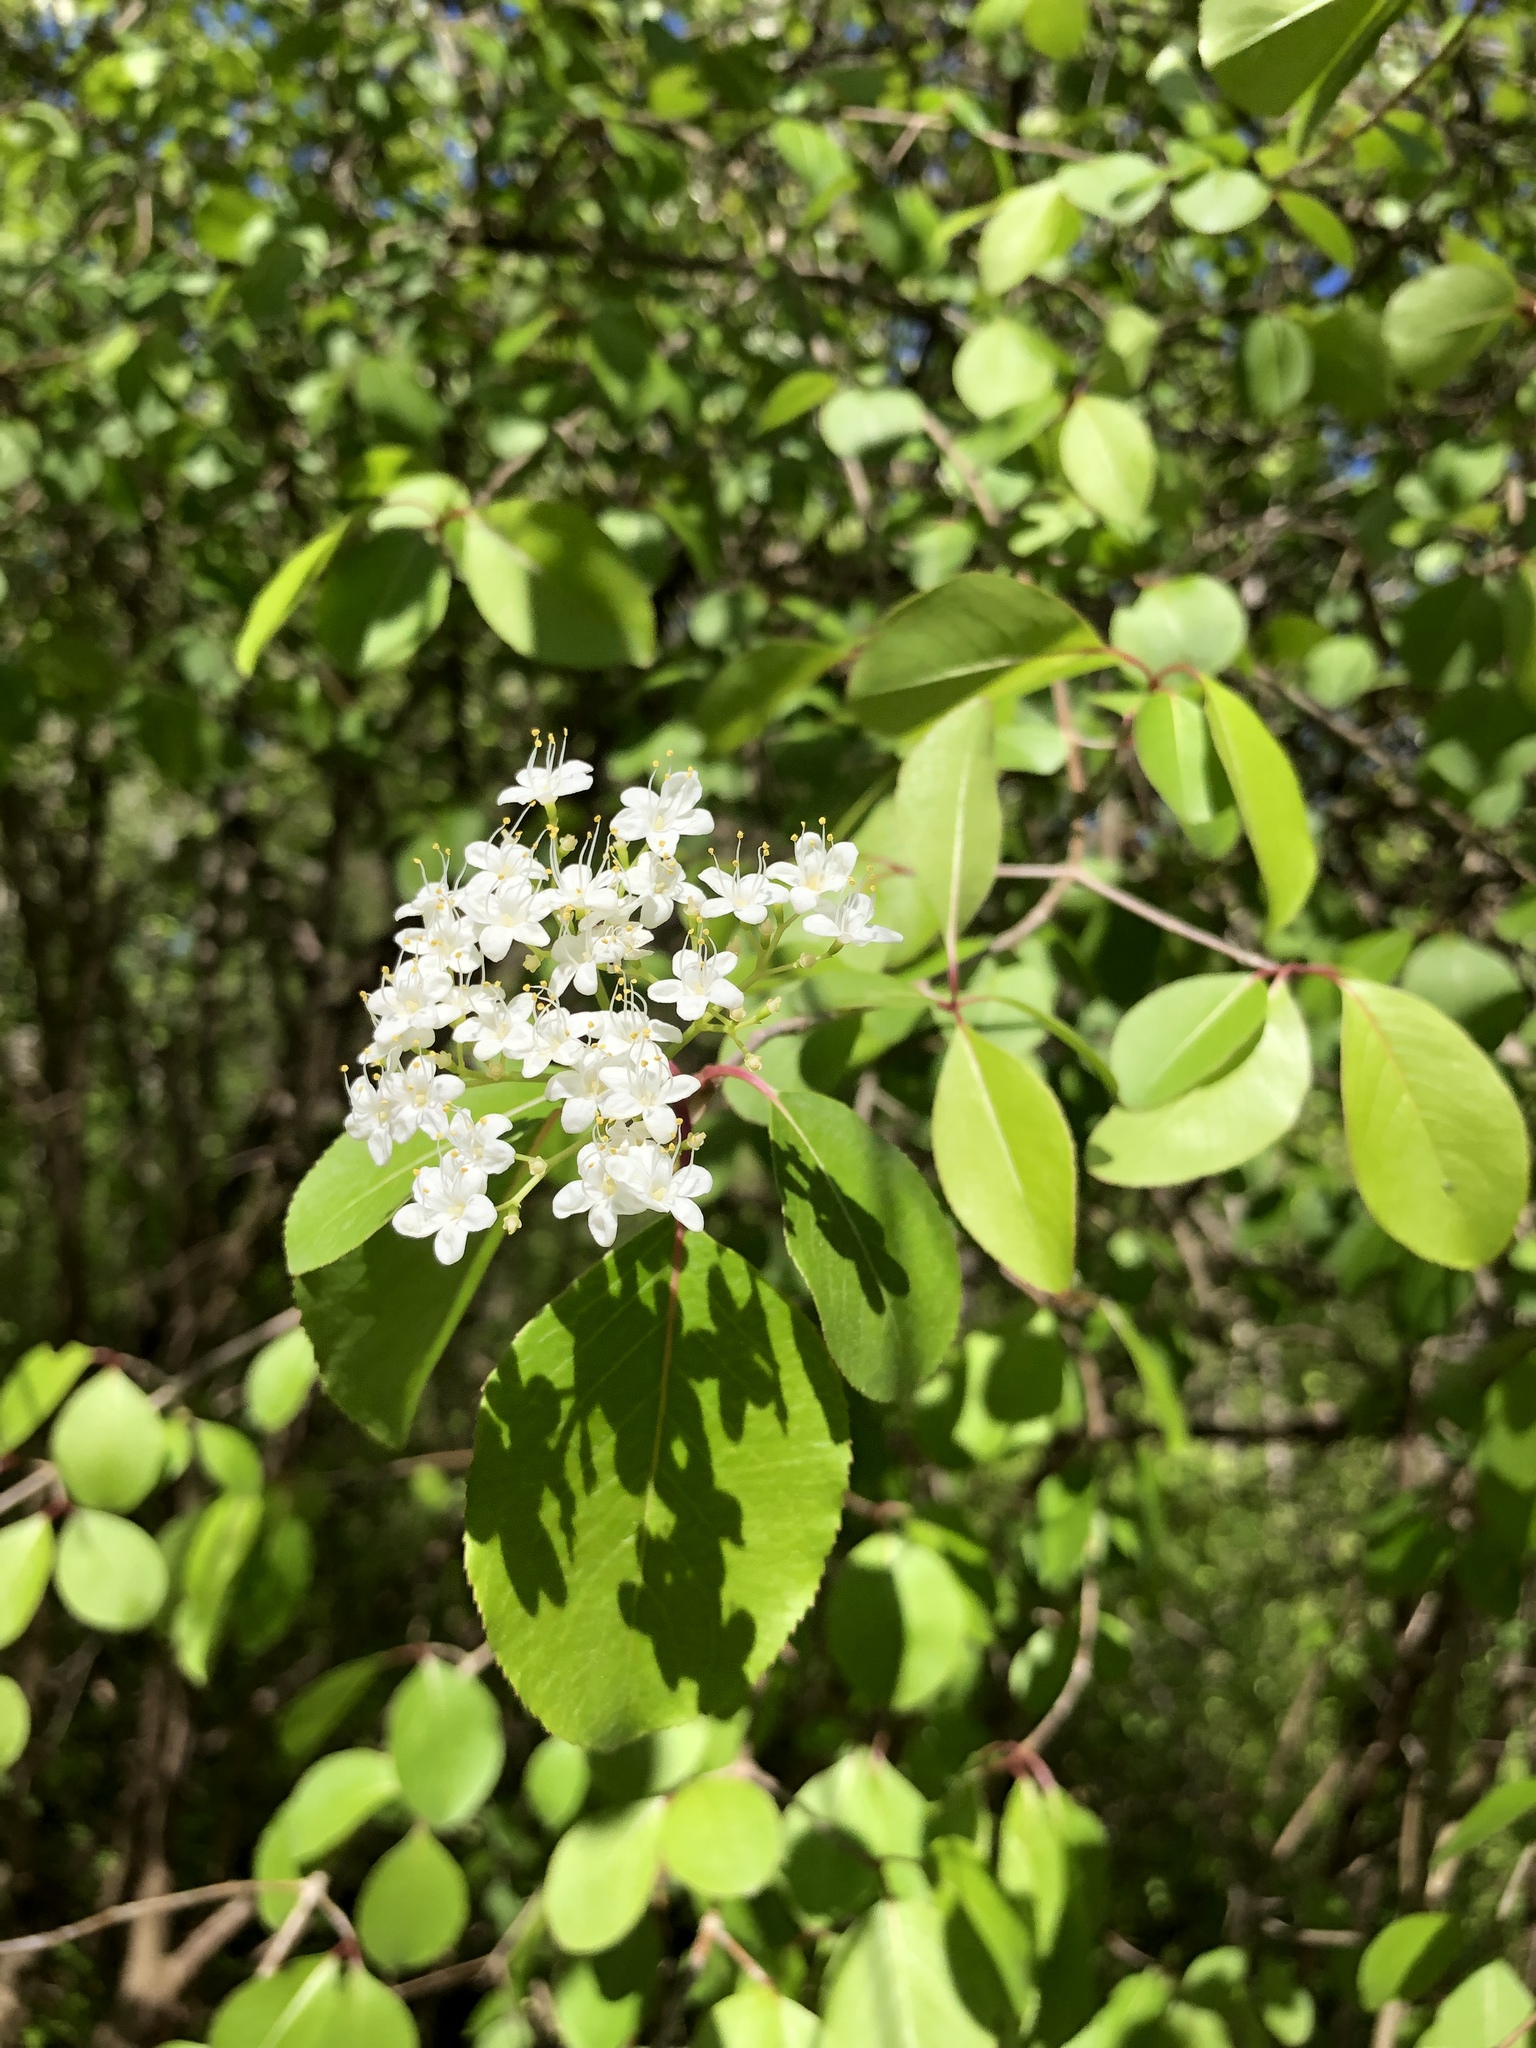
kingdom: Plantae
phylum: Tracheophyta
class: Magnoliopsida
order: Dipsacales
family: Viburnaceae
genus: Viburnum
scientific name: Viburnum prunifolium
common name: Black haw
